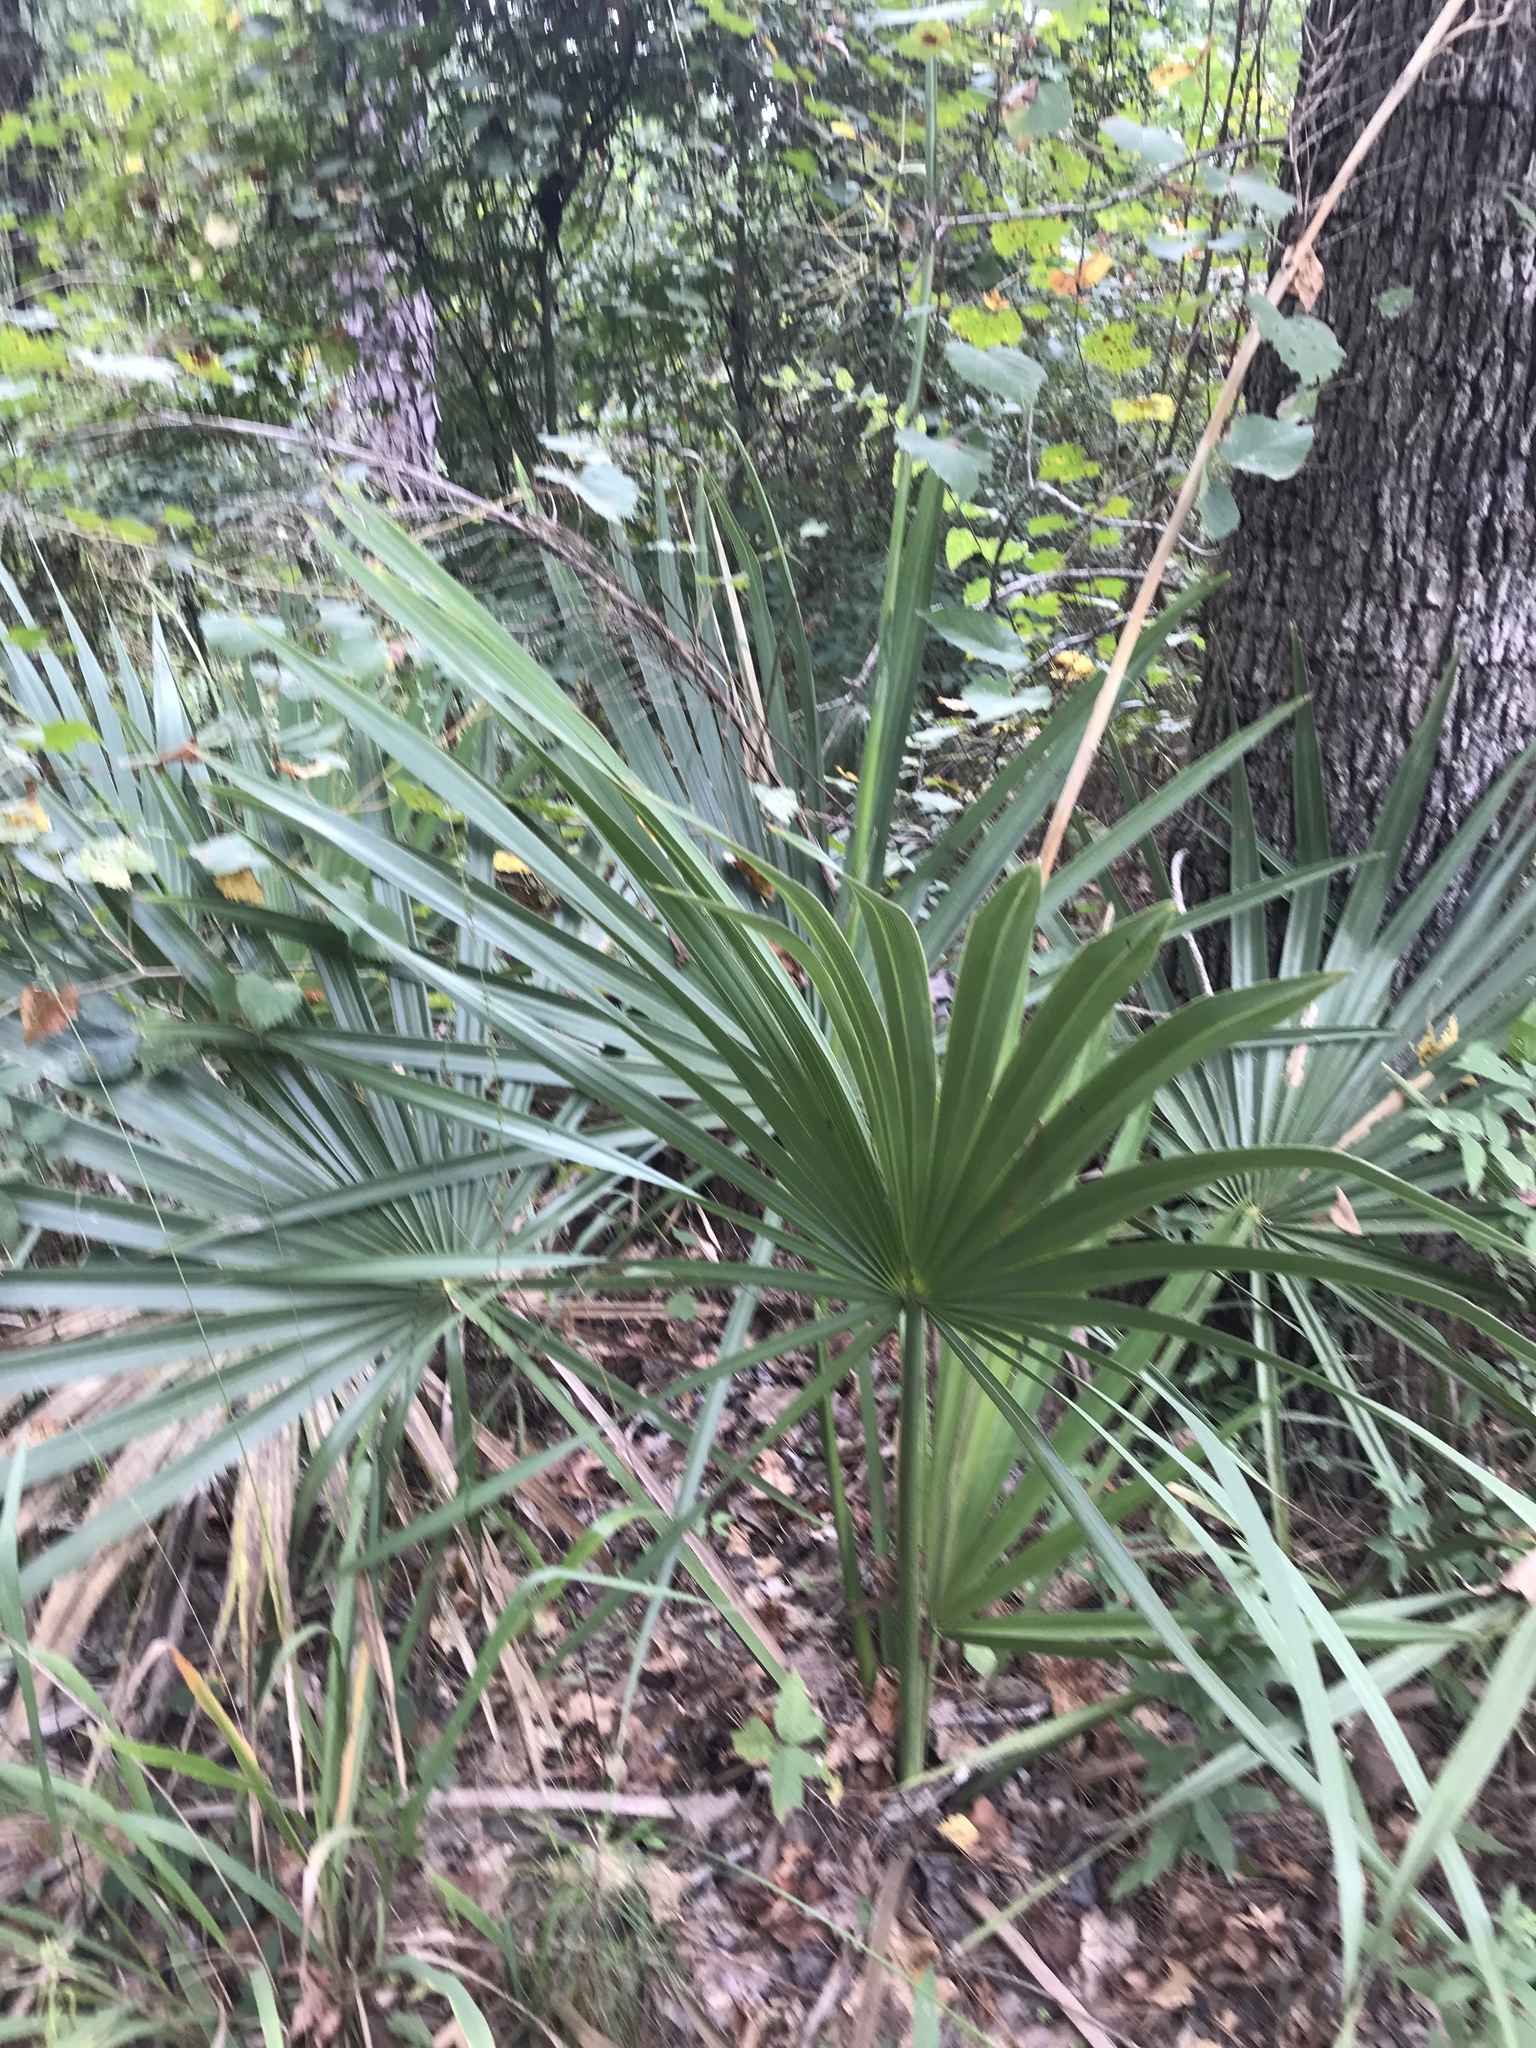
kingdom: Plantae
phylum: Tracheophyta
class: Liliopsida
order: Arecales
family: Arecaceae
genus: Sabal
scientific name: Sabal minor
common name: Dwarf palmetto
